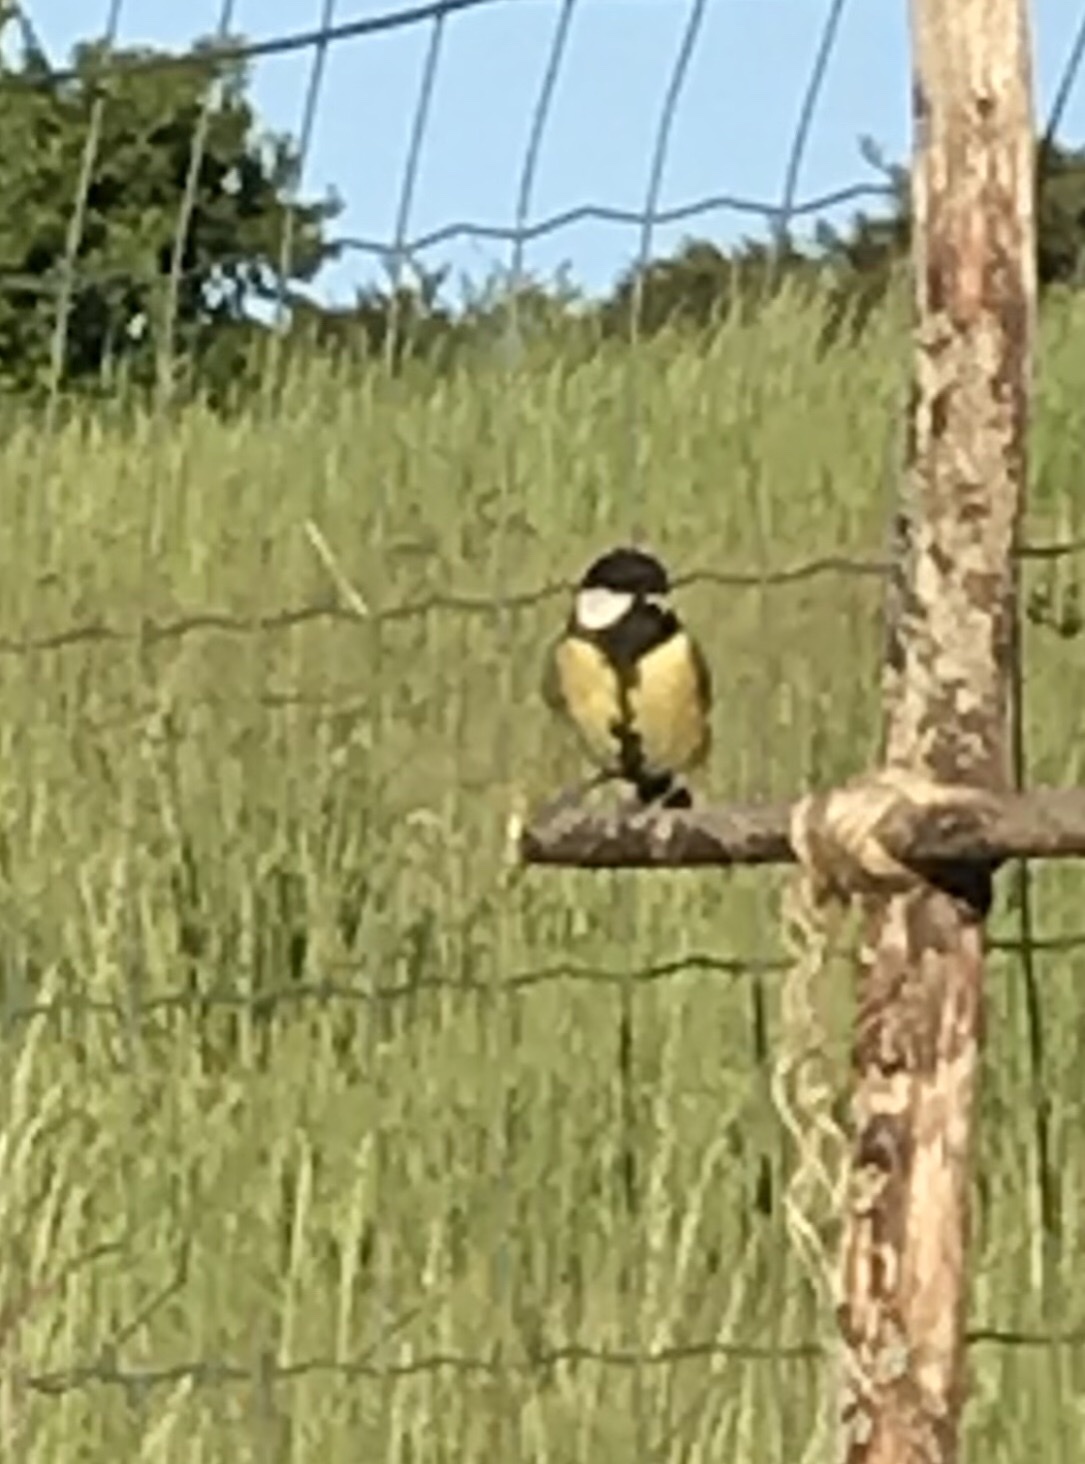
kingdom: Animalia
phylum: Chordata
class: Aves
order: Passeriformes
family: Paridae
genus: Parus
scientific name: Parus major
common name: Great tit
